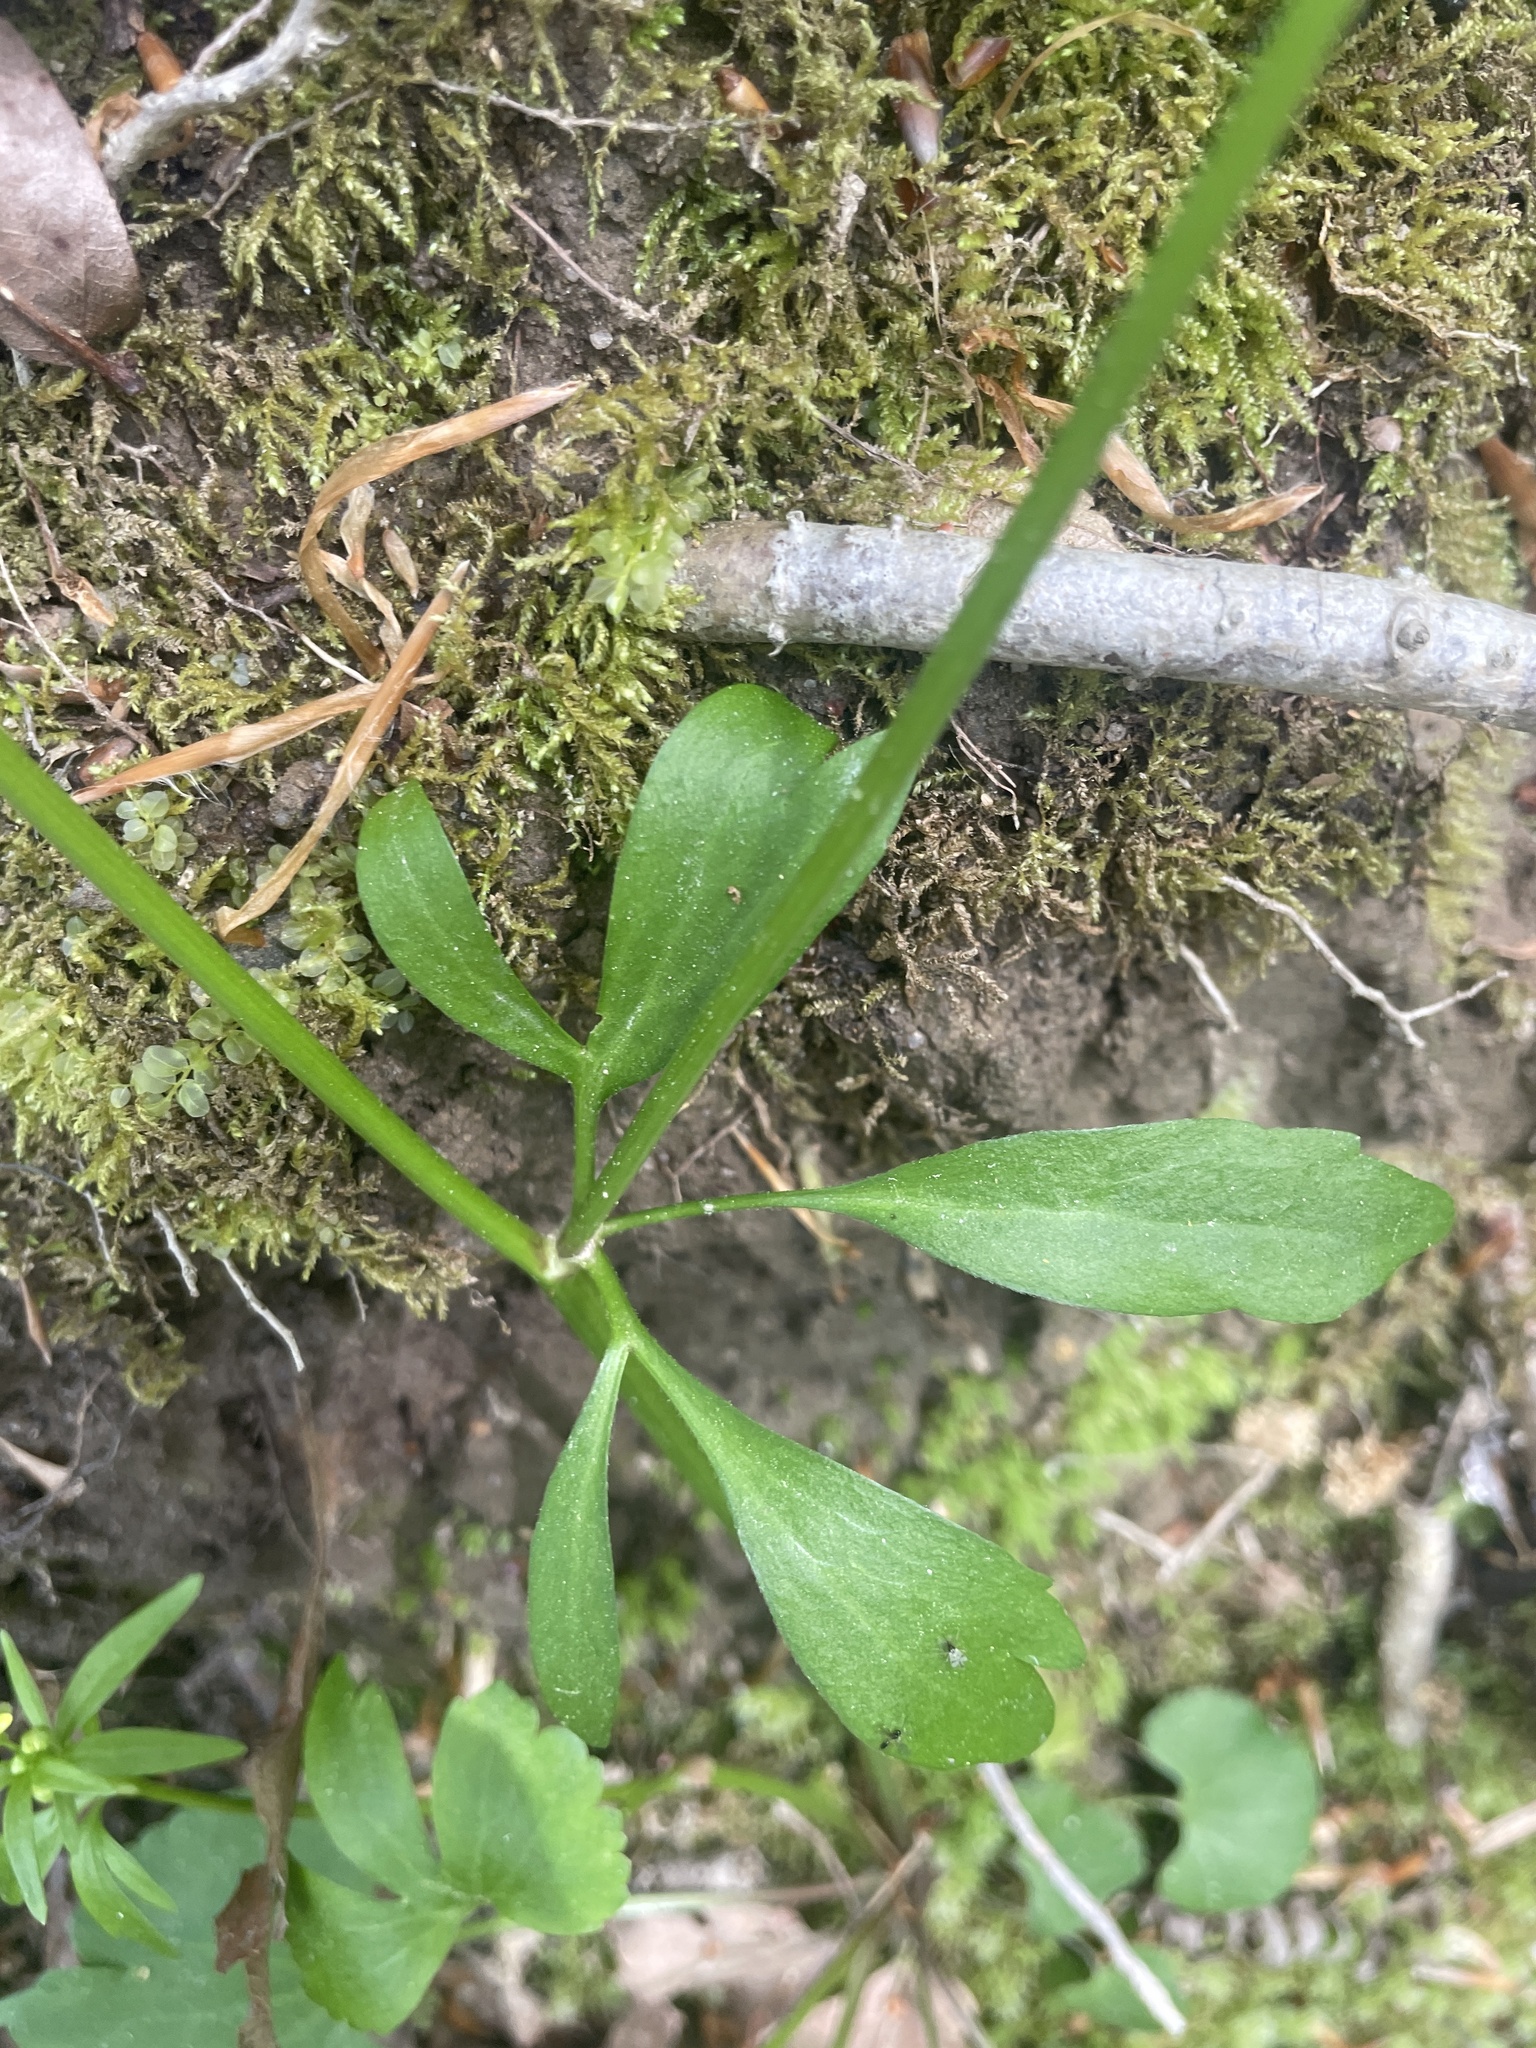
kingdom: Plantae
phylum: Tracheophyta
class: Magnoliopsida
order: Ranunculales
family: Ranunculaceae
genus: Ranunculus
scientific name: Ranunculus abortivus
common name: Early wood buttercup
